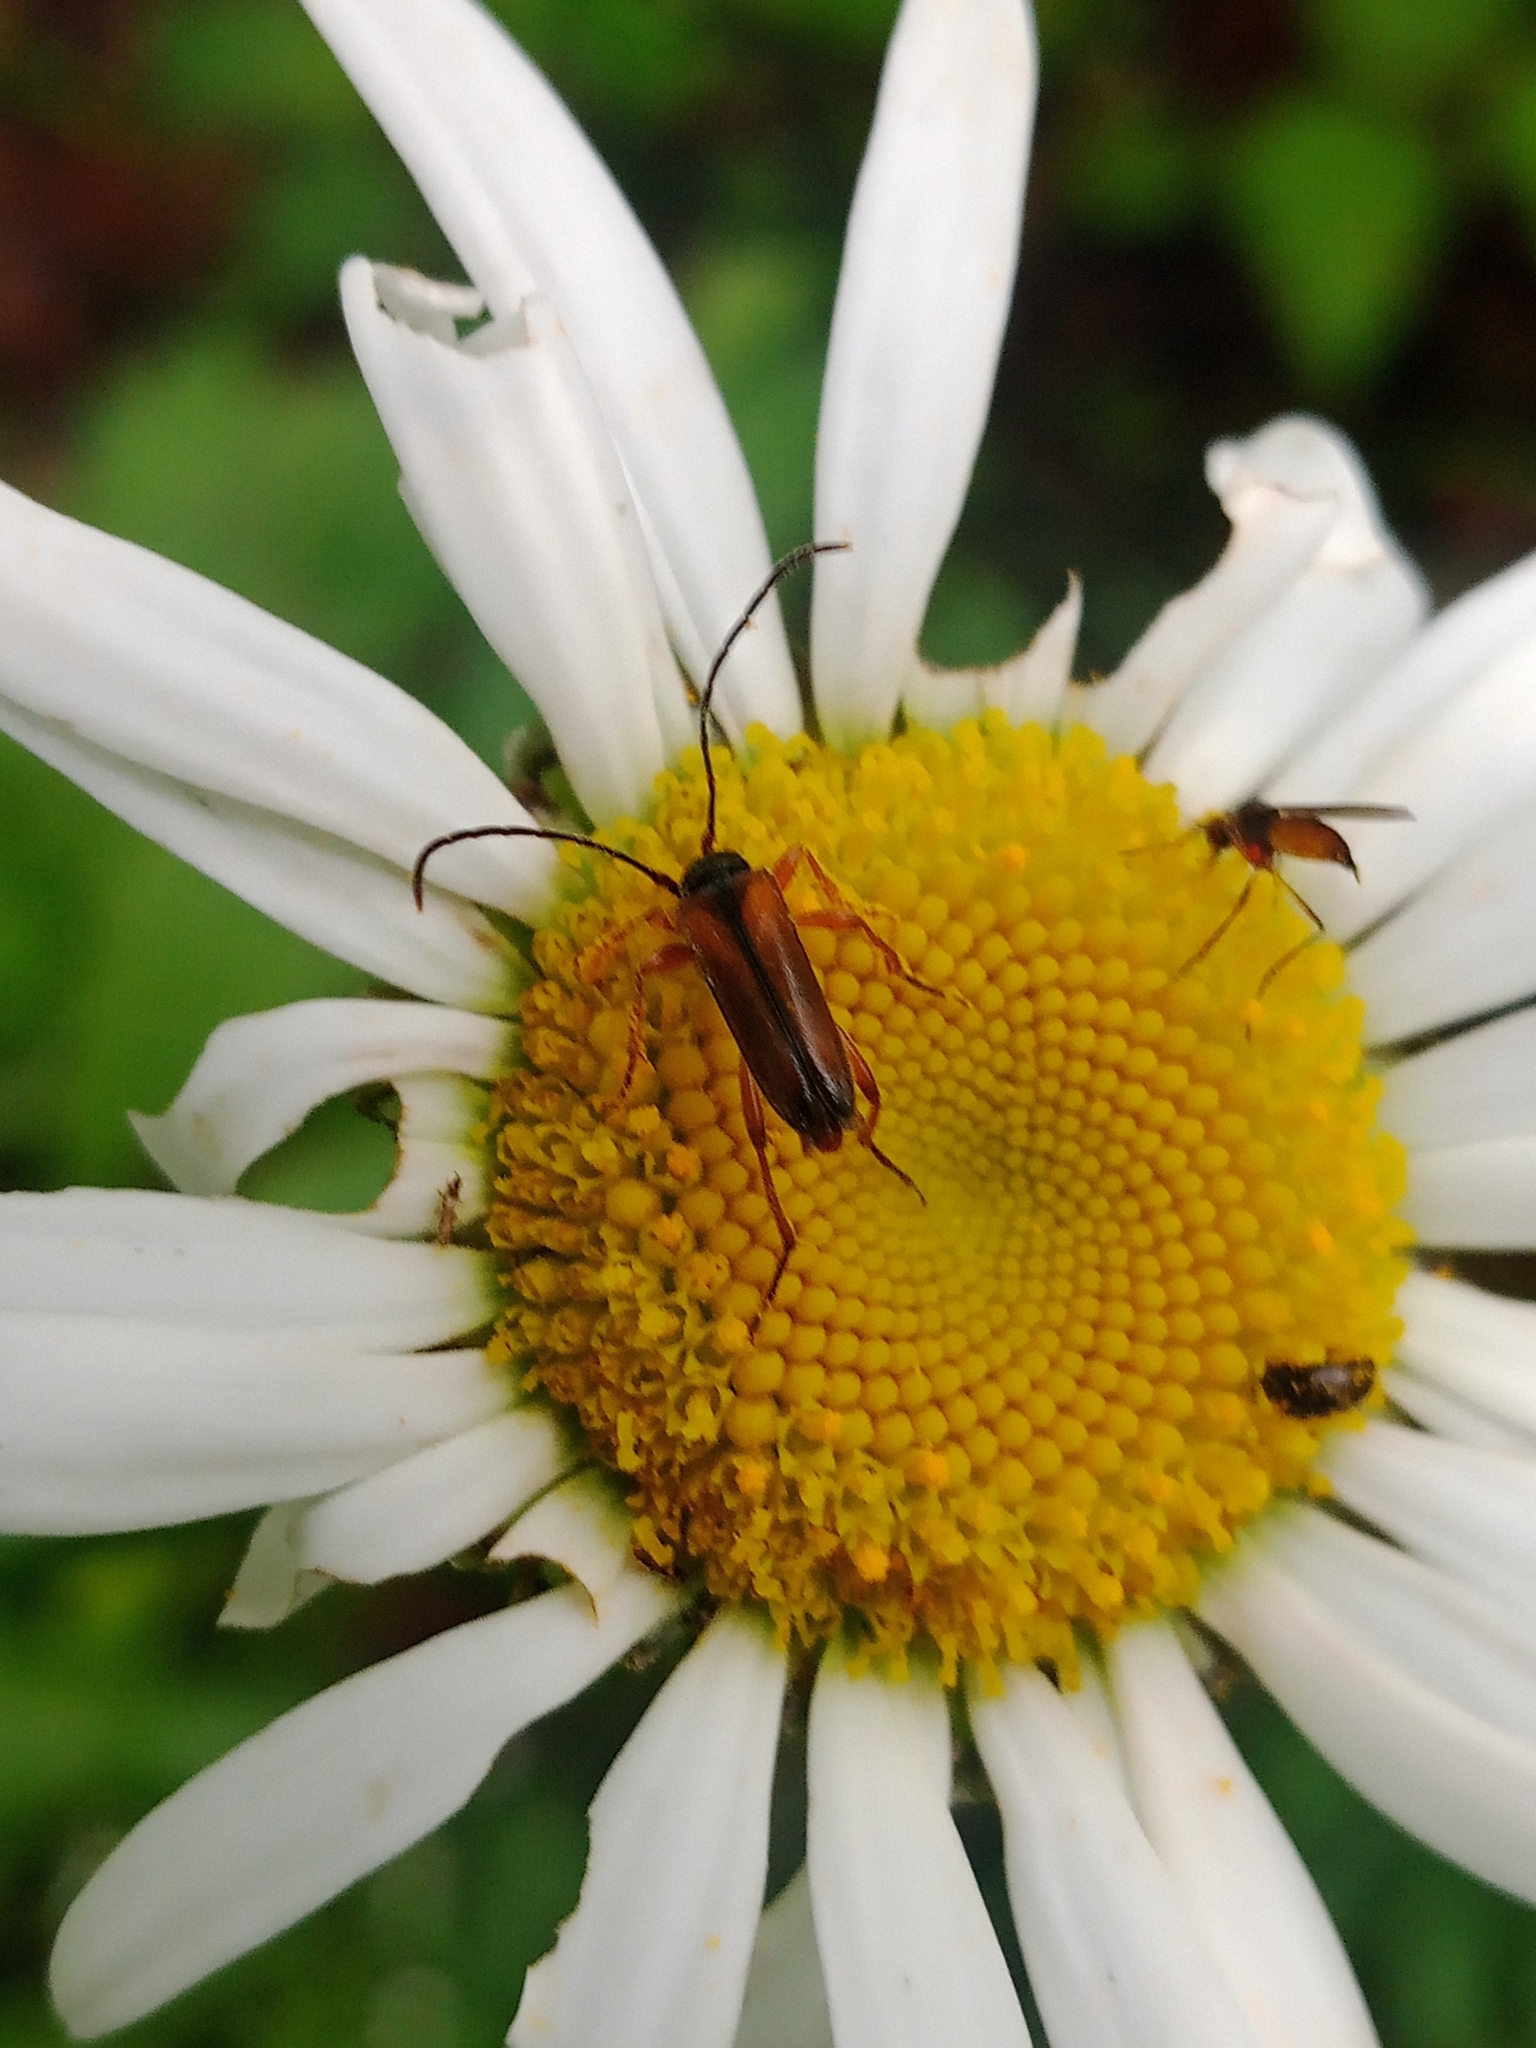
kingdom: Animalia
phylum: Arthropoda
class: Insecta
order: Coleoptera
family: Cerambycidae
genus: Alosterna
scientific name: Alosterna tabacicolor
